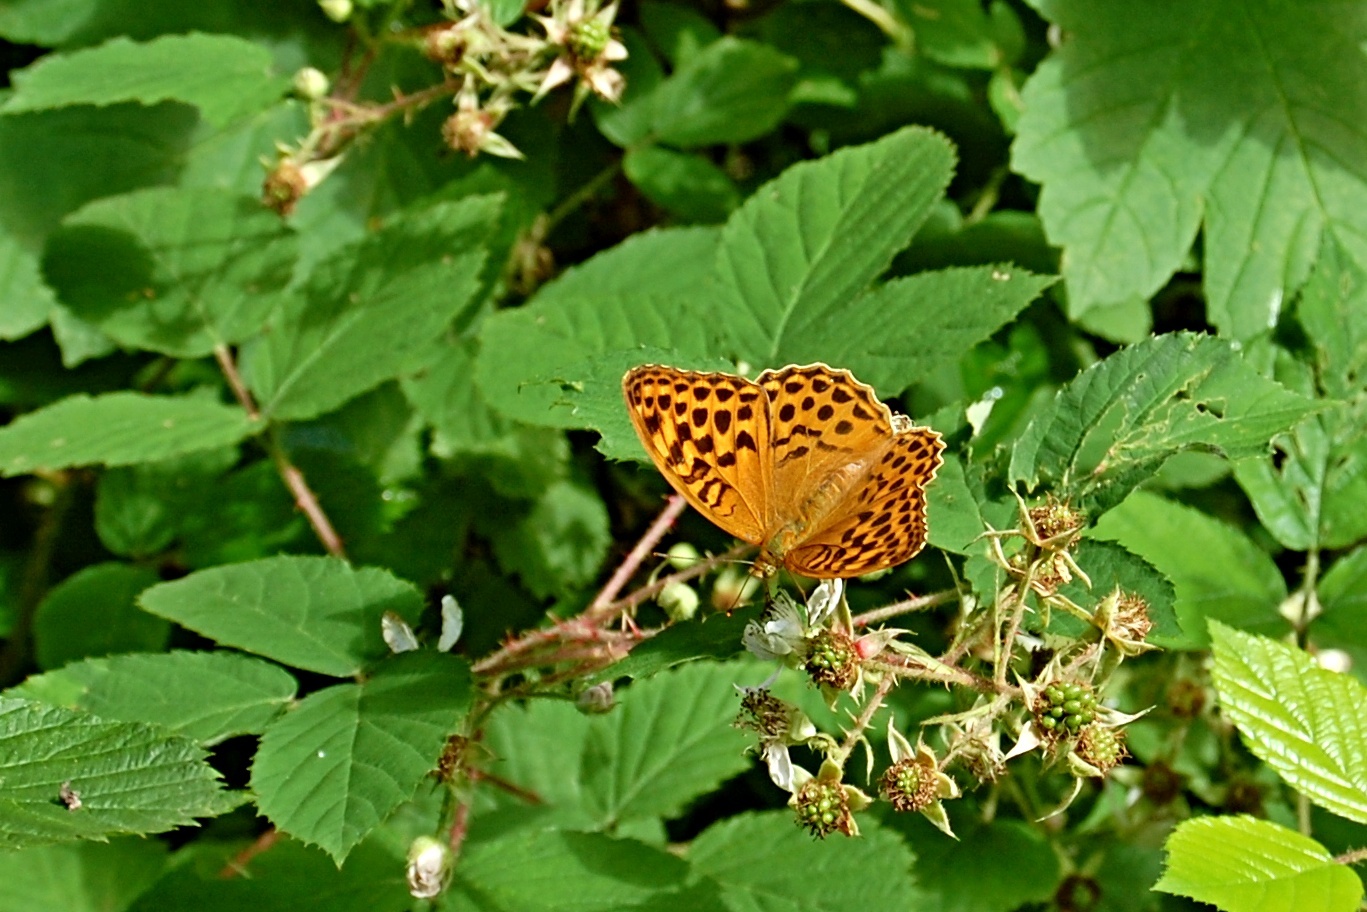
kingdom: Animalia
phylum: Arthropoda
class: Insecta
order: Lepidoptera
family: Nymphalidae
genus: Argynnis
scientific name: Argynnis paphia
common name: Silver-washed fritillary
